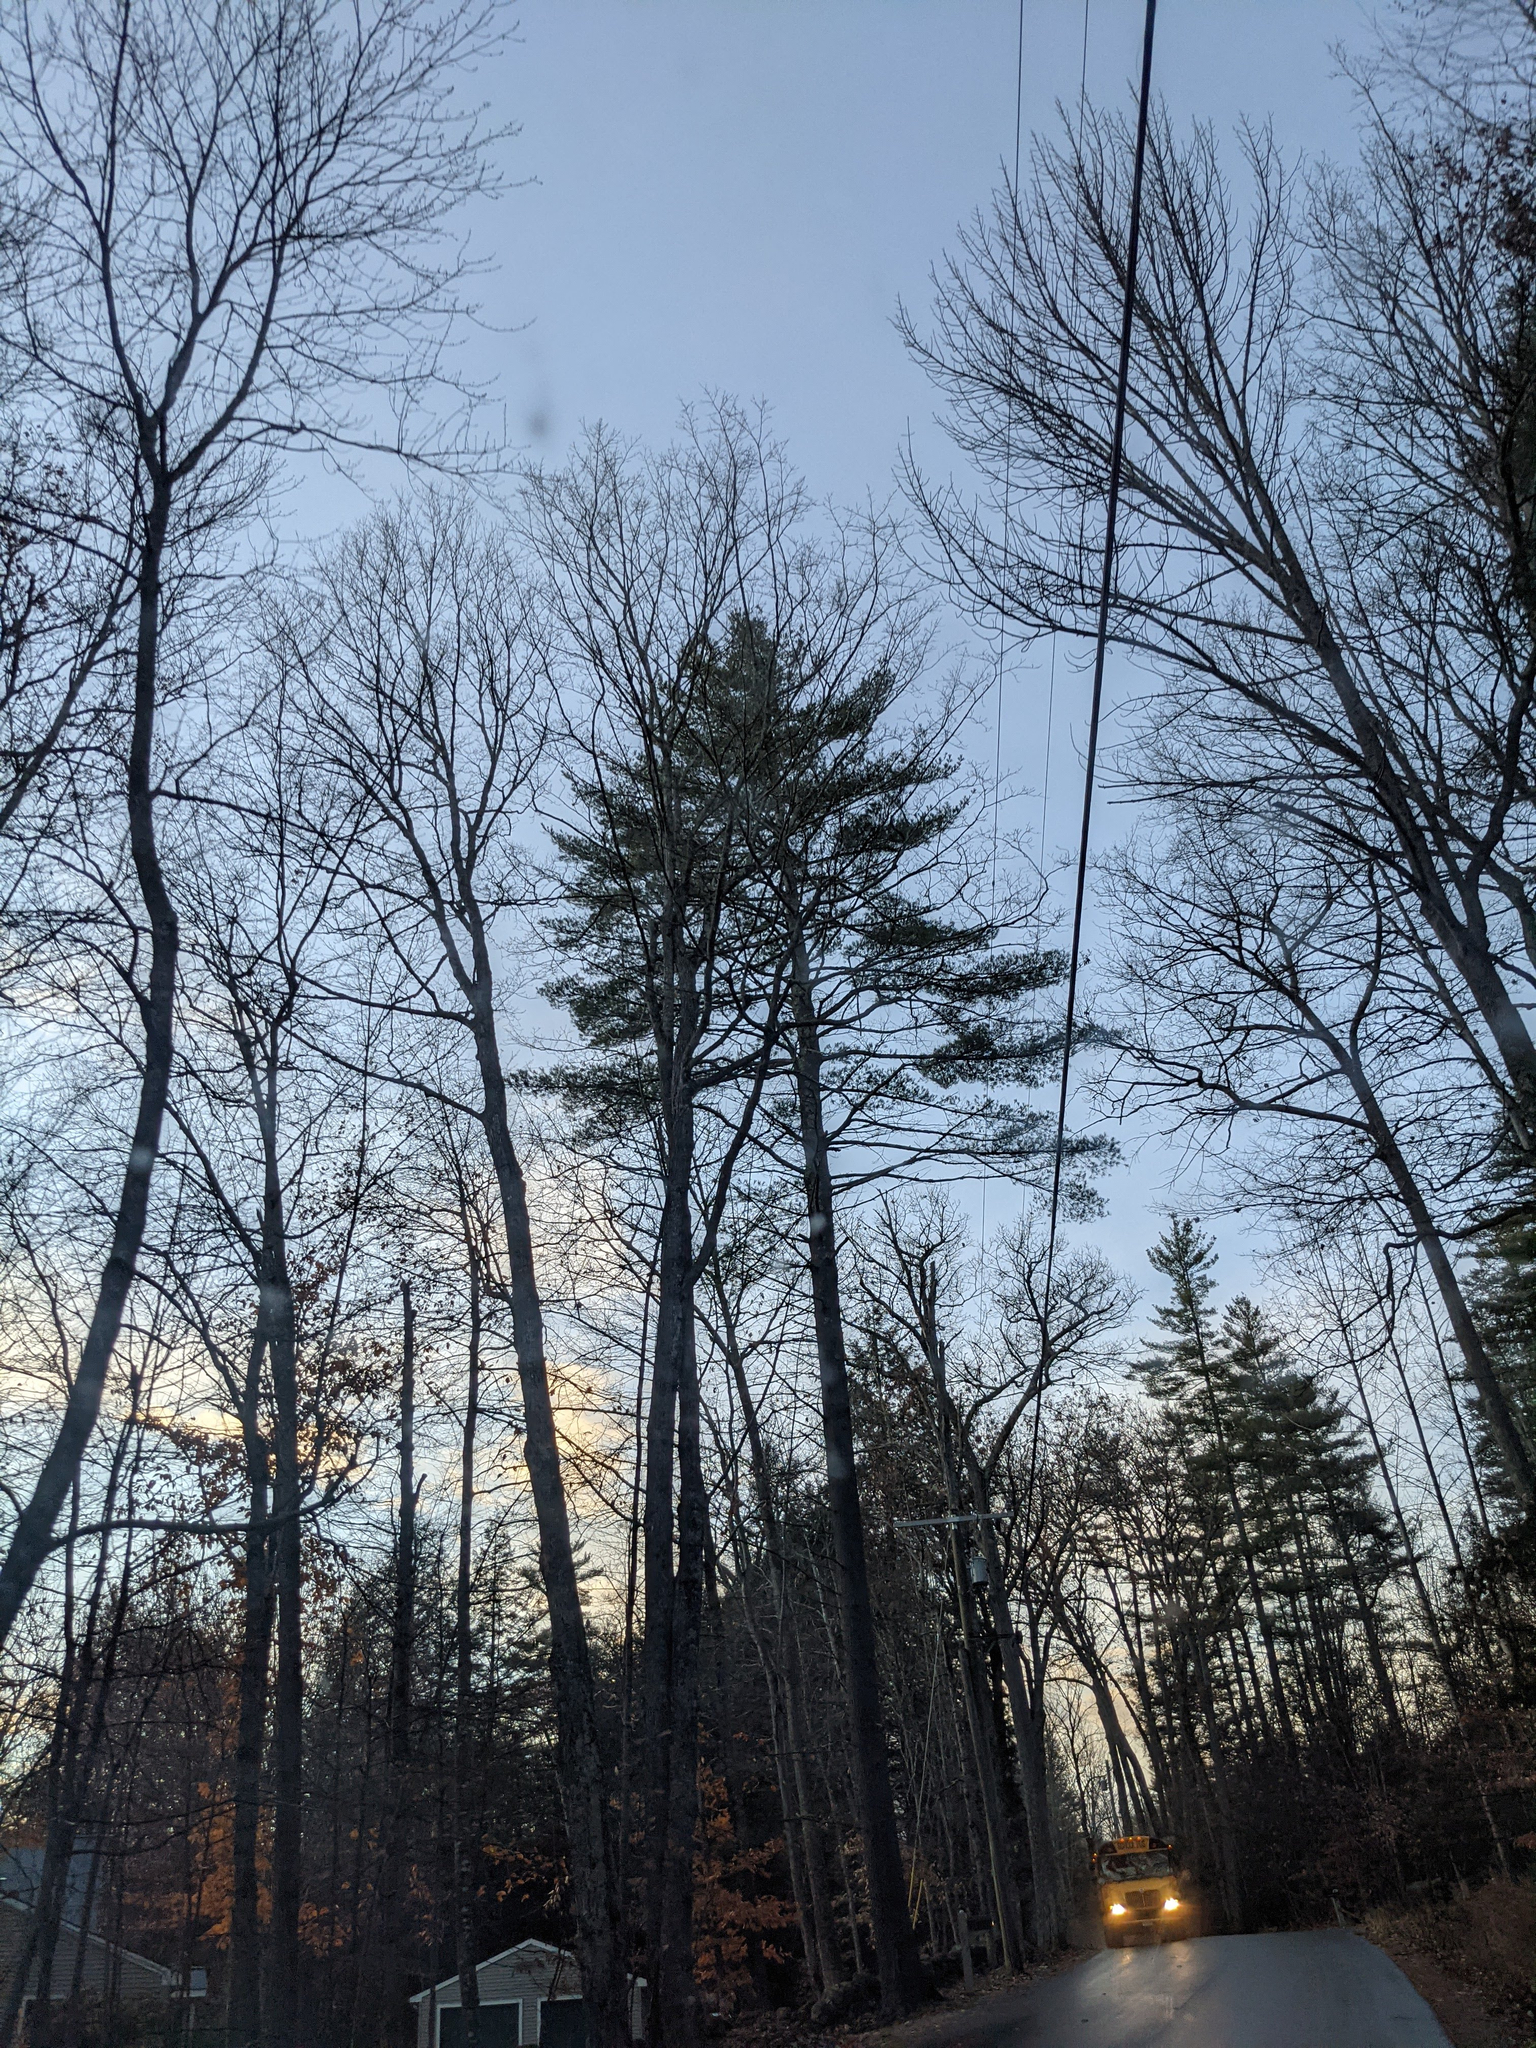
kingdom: Plantae
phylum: Tracheophyta
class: Pinopsida
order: Pinales
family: Pinaceae
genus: Pinus
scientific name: Pinus strobus
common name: Weymouth pine
